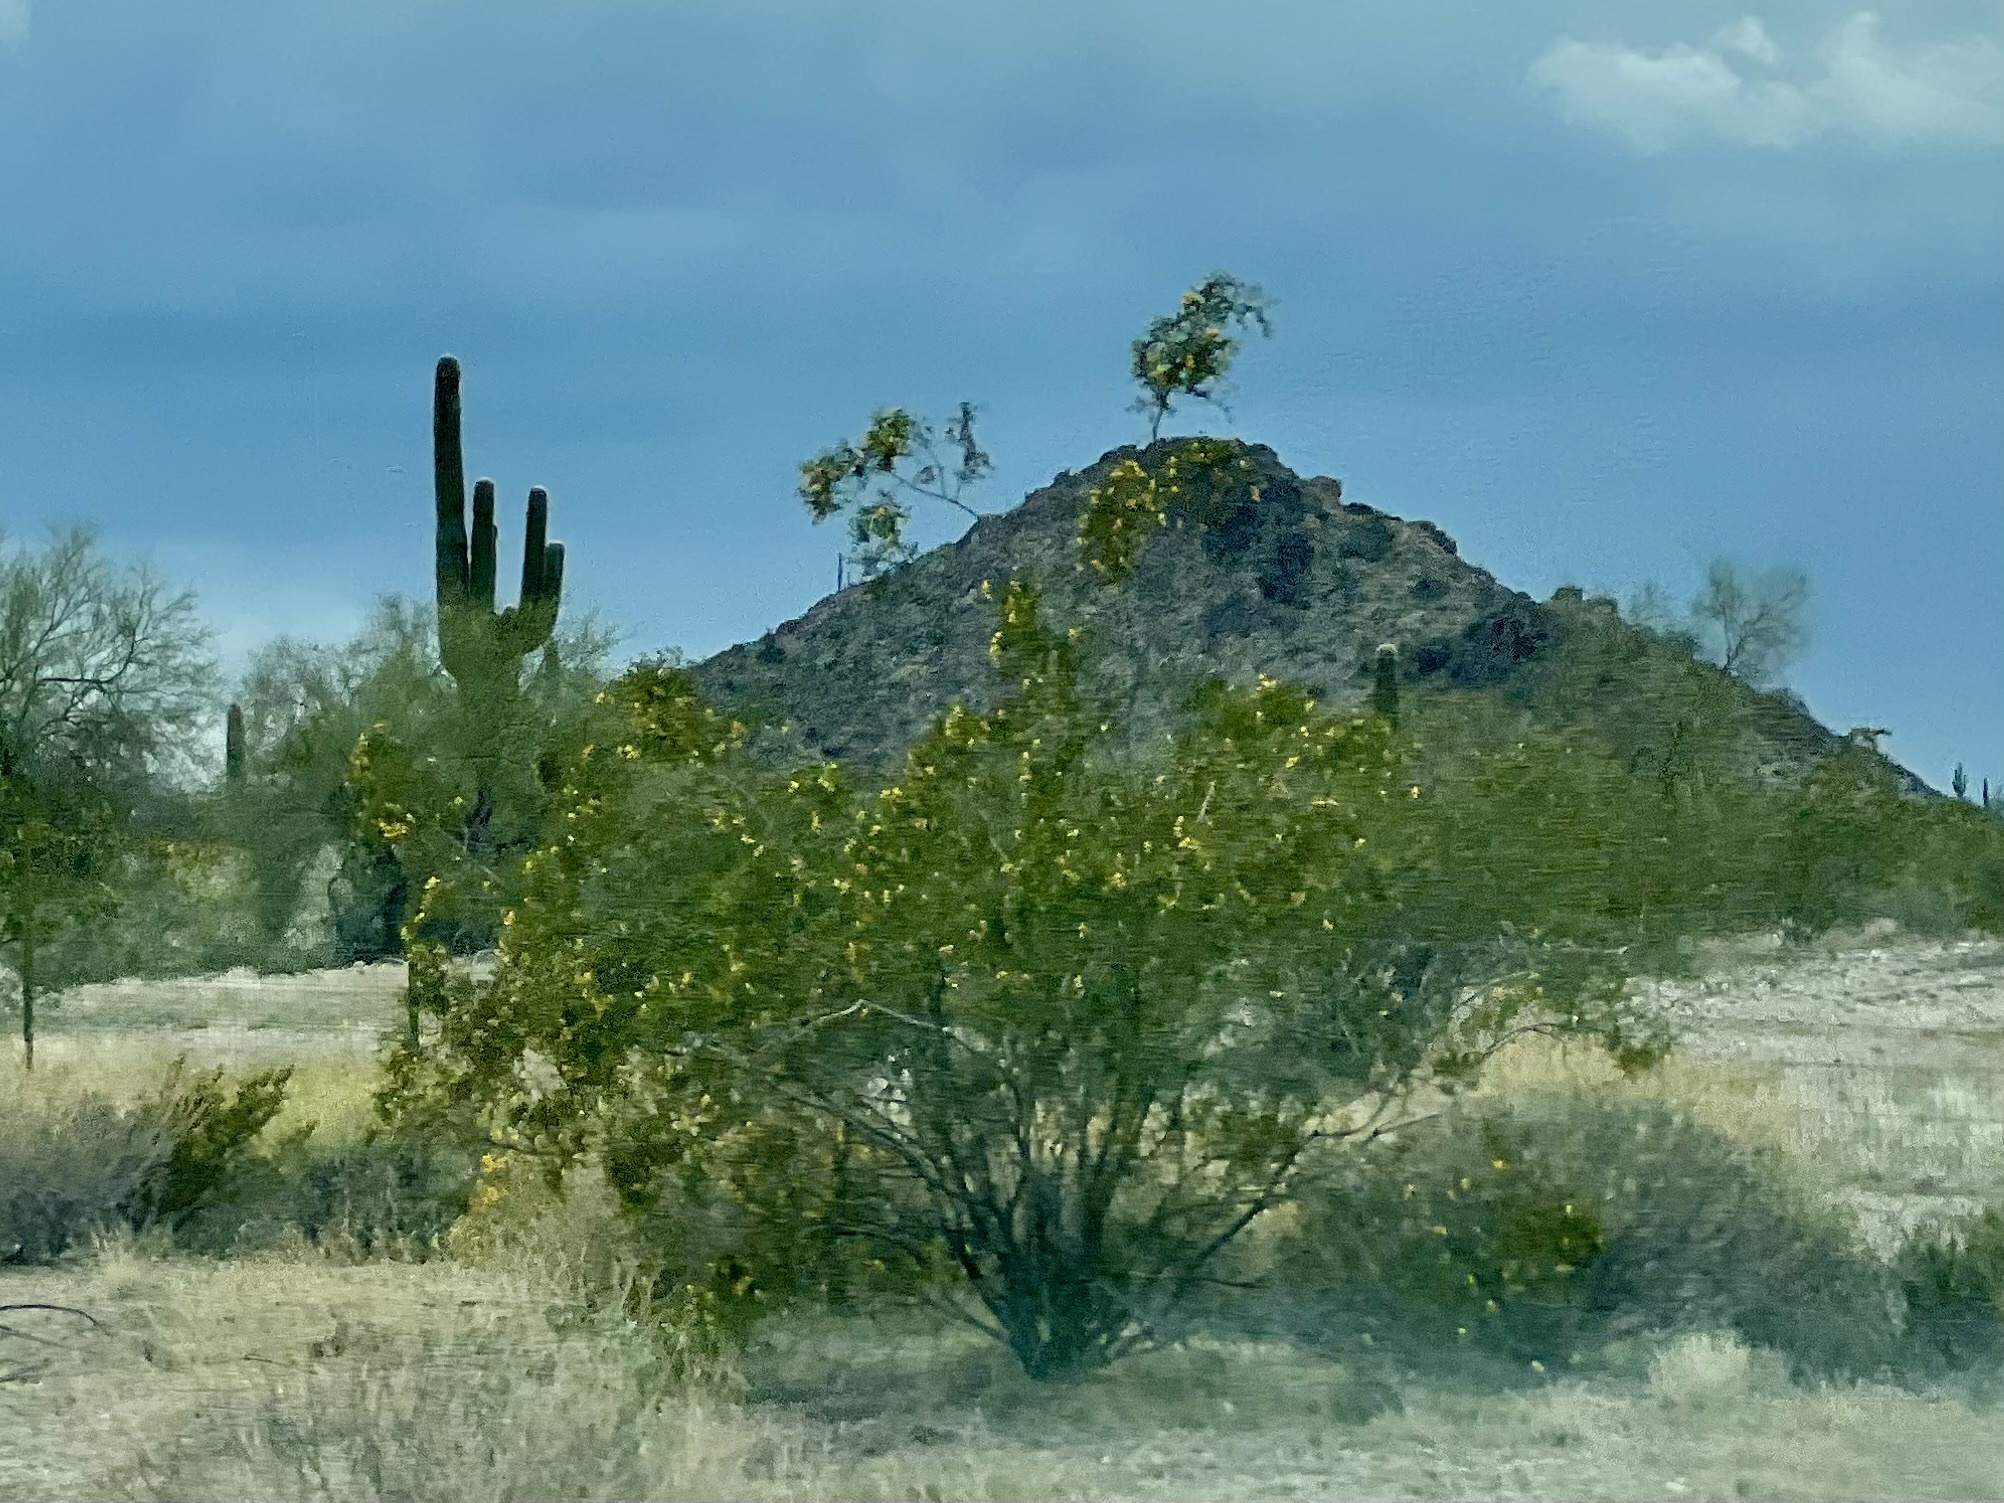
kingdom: Plantae
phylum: Tracheophyta
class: Magnoliopsida
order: Zygophyllales
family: Zygophyllaceae
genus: Larrea
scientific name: Larrea tridentata
